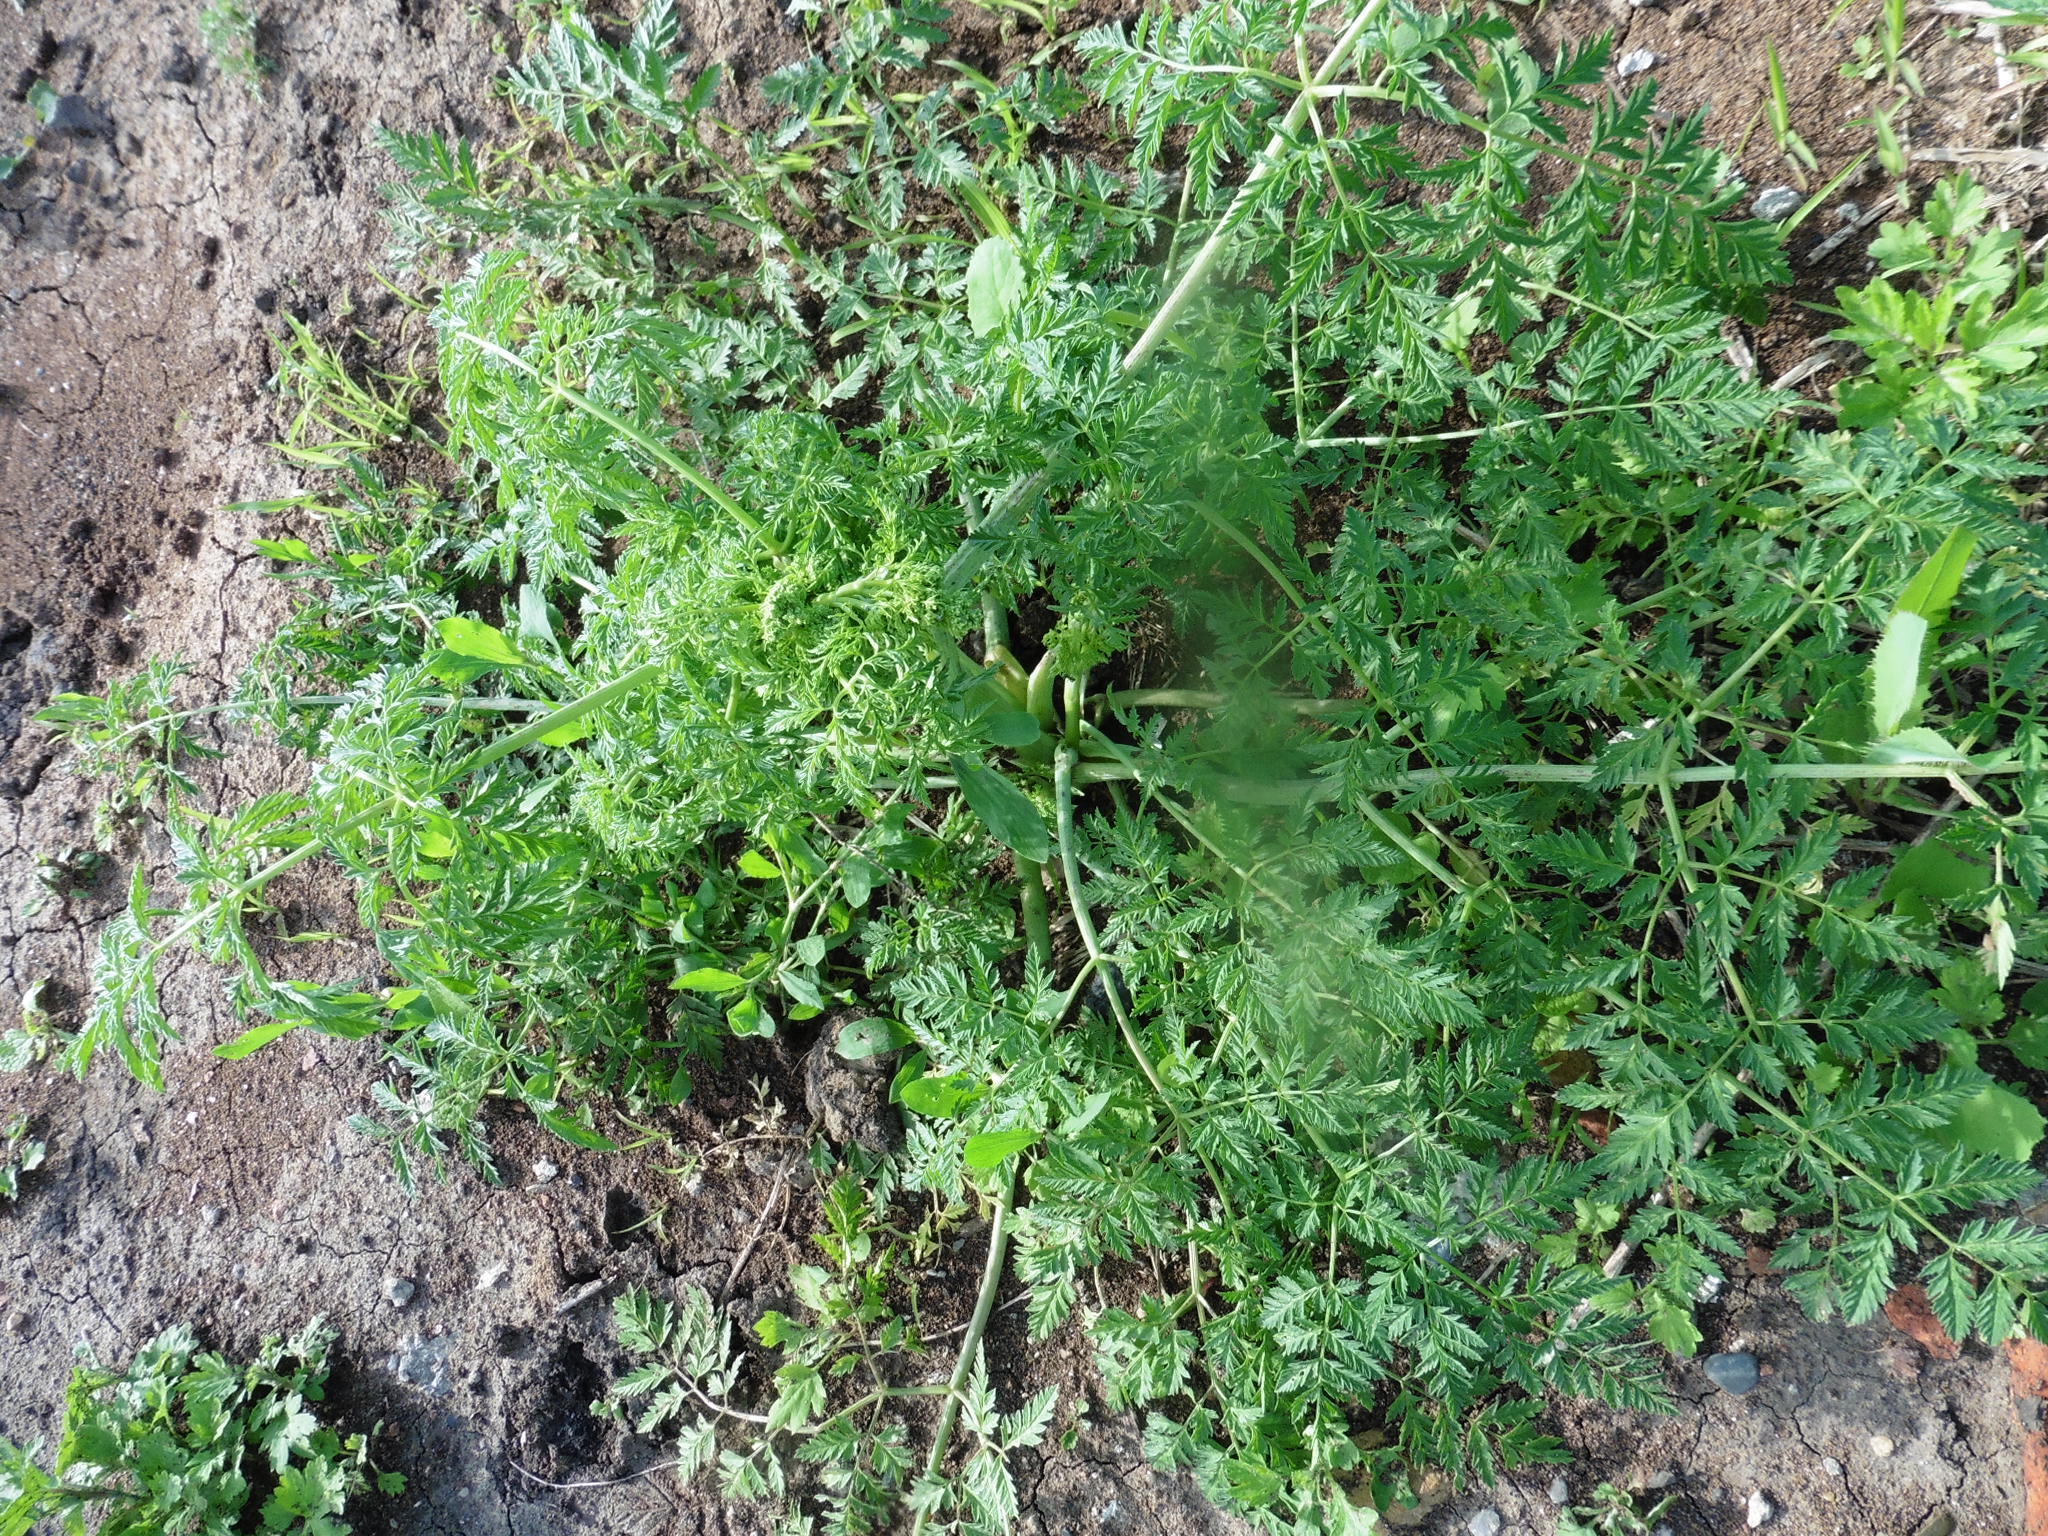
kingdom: Plantae
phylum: Tracheophyta
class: Magnoliopsida
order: Apiales
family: Apiaceae
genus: Conium
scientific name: Conium maculatum
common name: Hemlock
